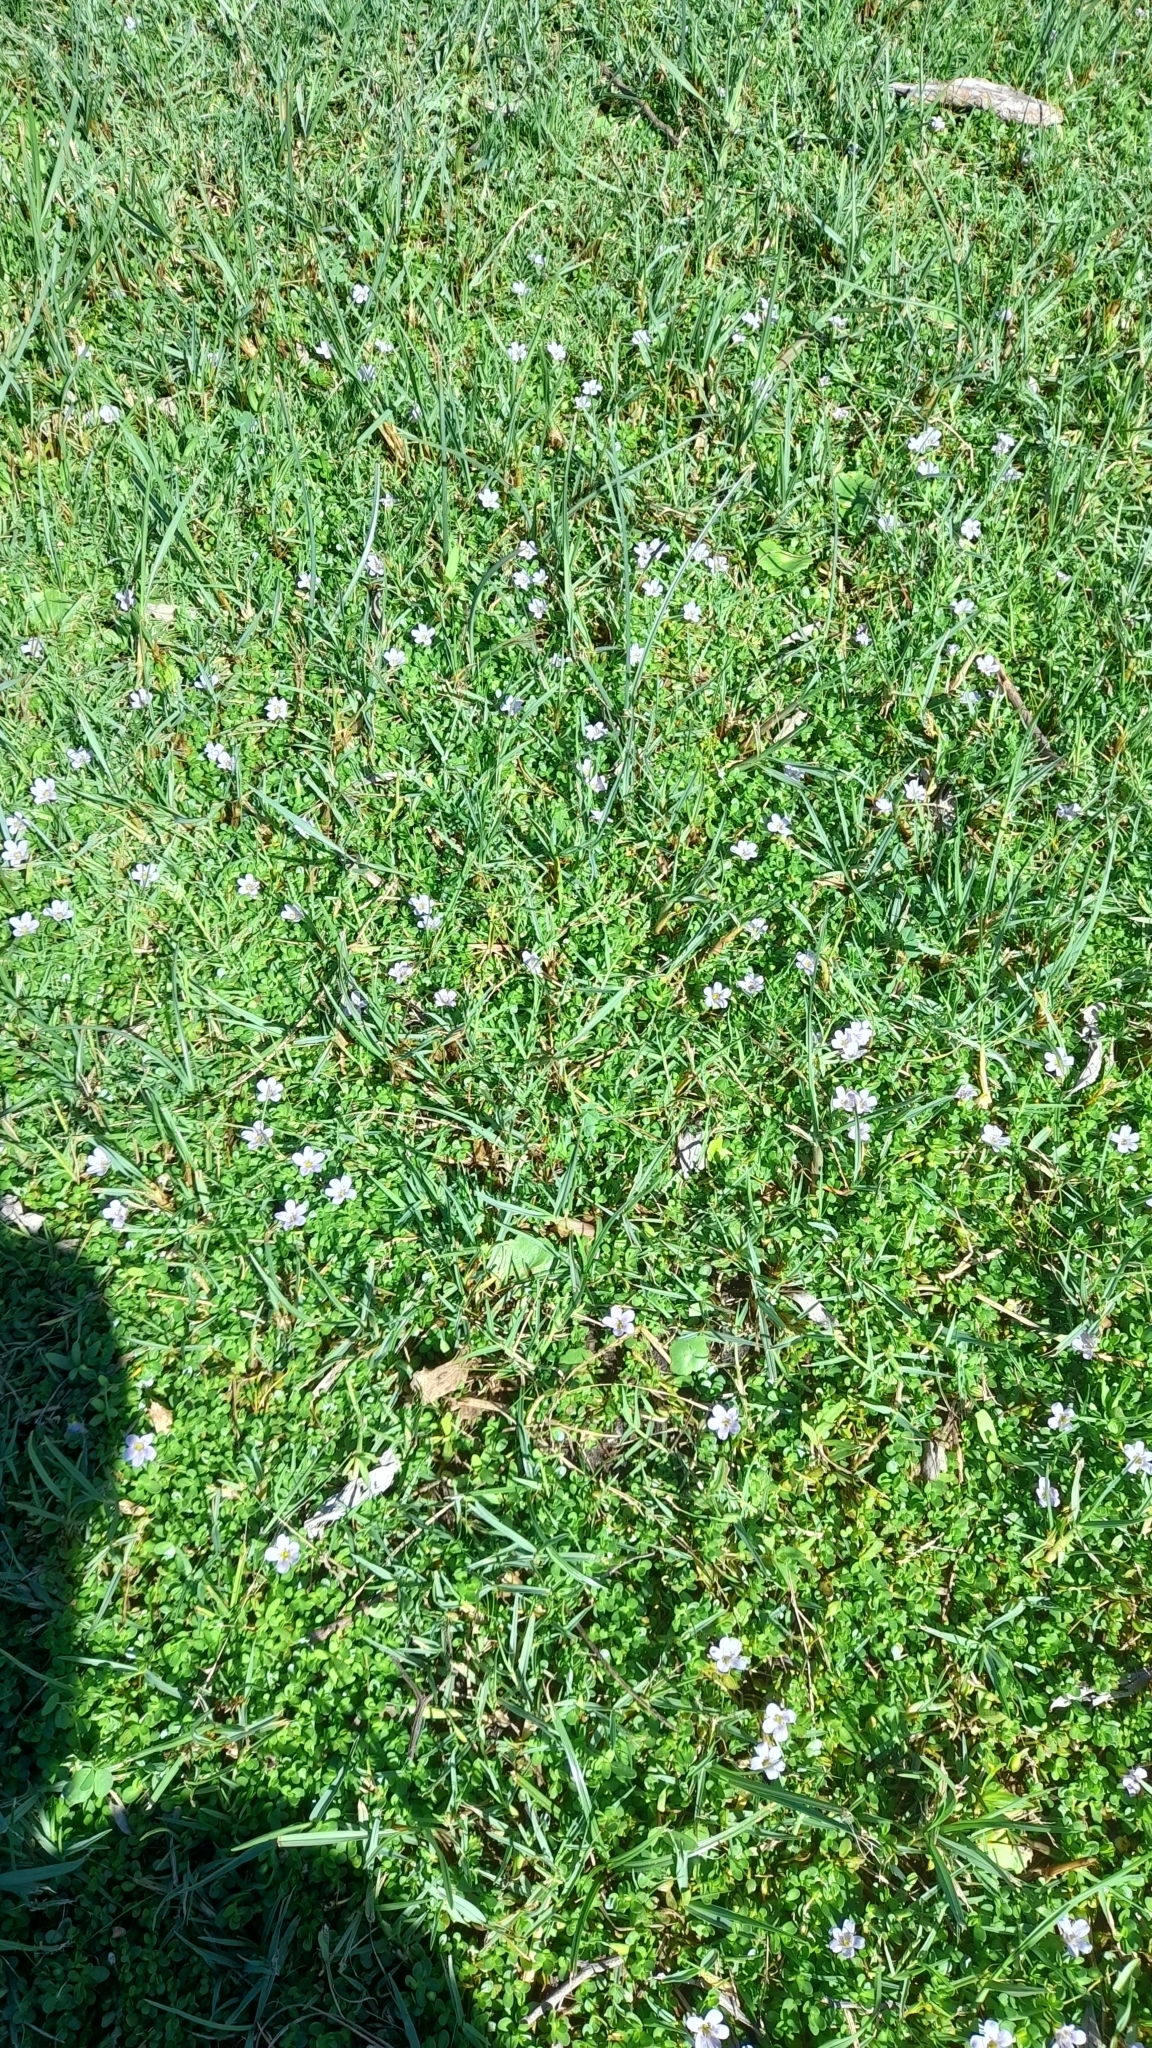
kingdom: Plantae
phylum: Tracheophyta
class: Magnoliopsida
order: Lamiales
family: Plantaginaceae
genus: Bacopa
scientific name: Bacopa monnieri
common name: Indian-pennywort
